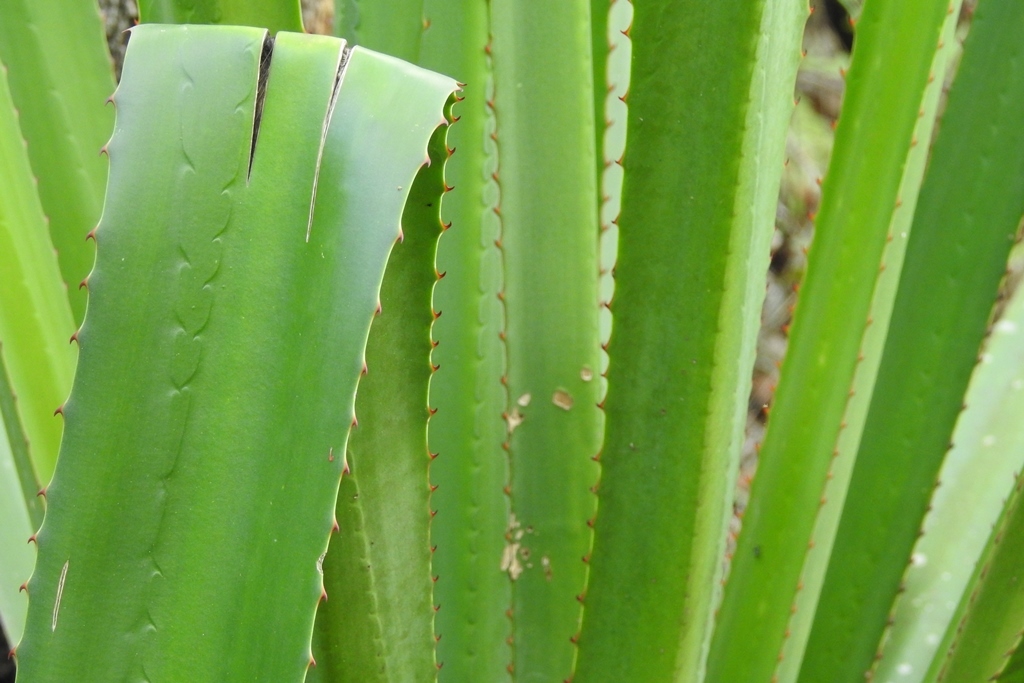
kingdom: Plantae
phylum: Tracheophyta
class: Liliopsida
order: Asparagales
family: Asparagaceae
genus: Furcraea
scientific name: Furcraea cabuya
